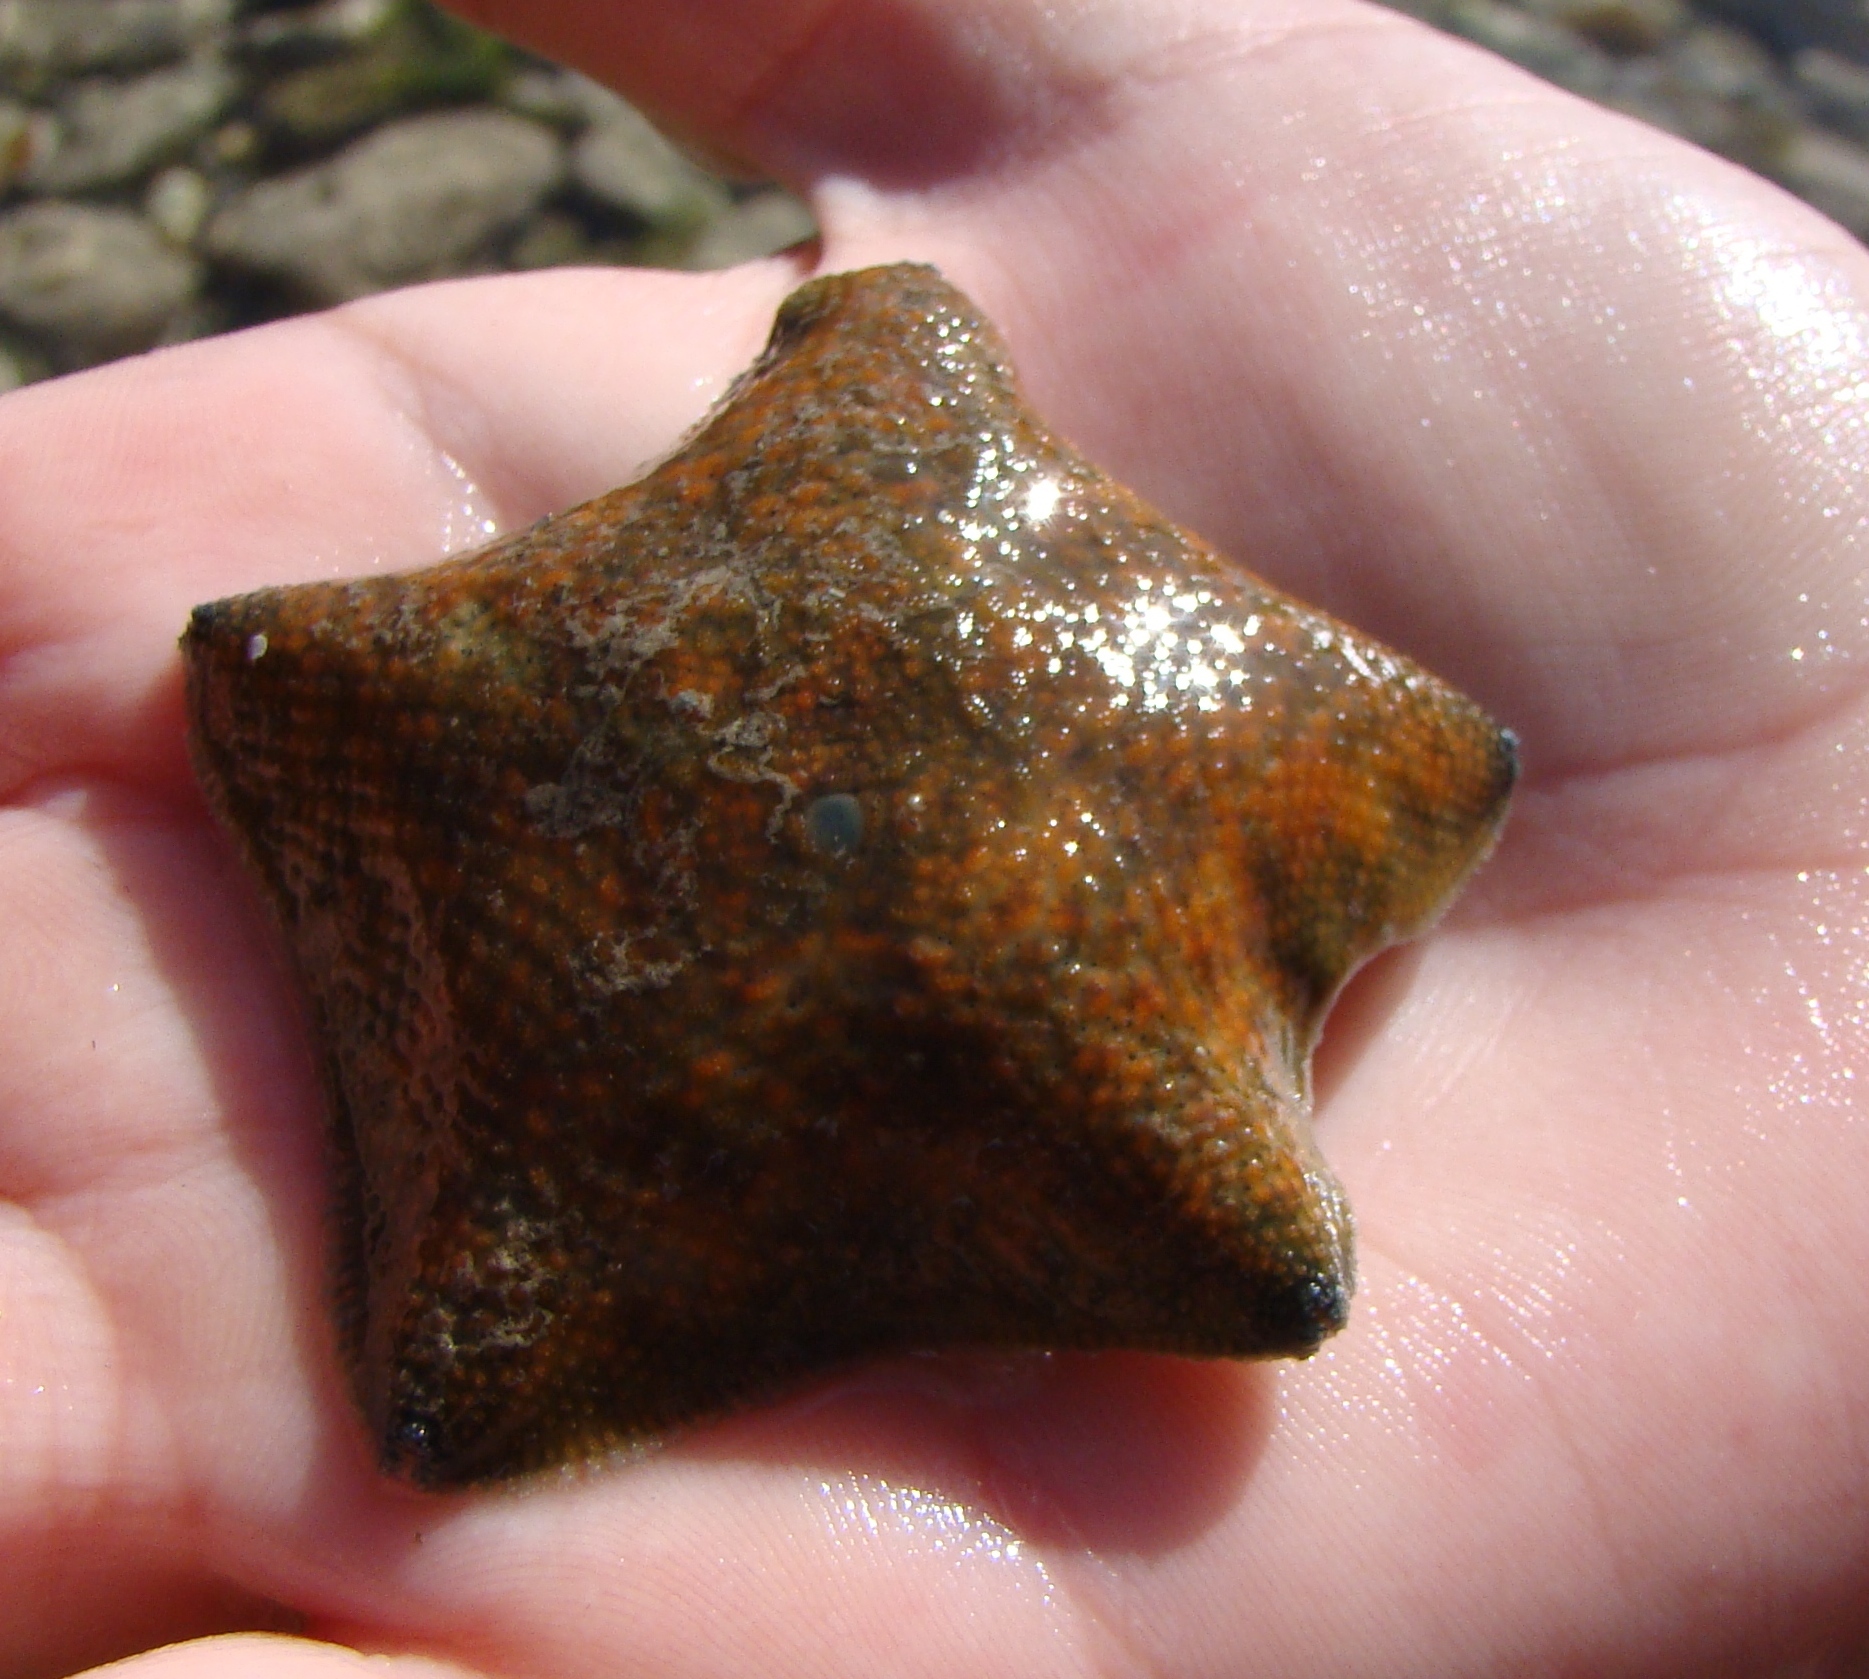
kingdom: Animalia
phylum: Echinodermata
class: Asteroidea
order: Valvatida
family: Asterinidae
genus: Patiriella
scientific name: Patiriella regularis
